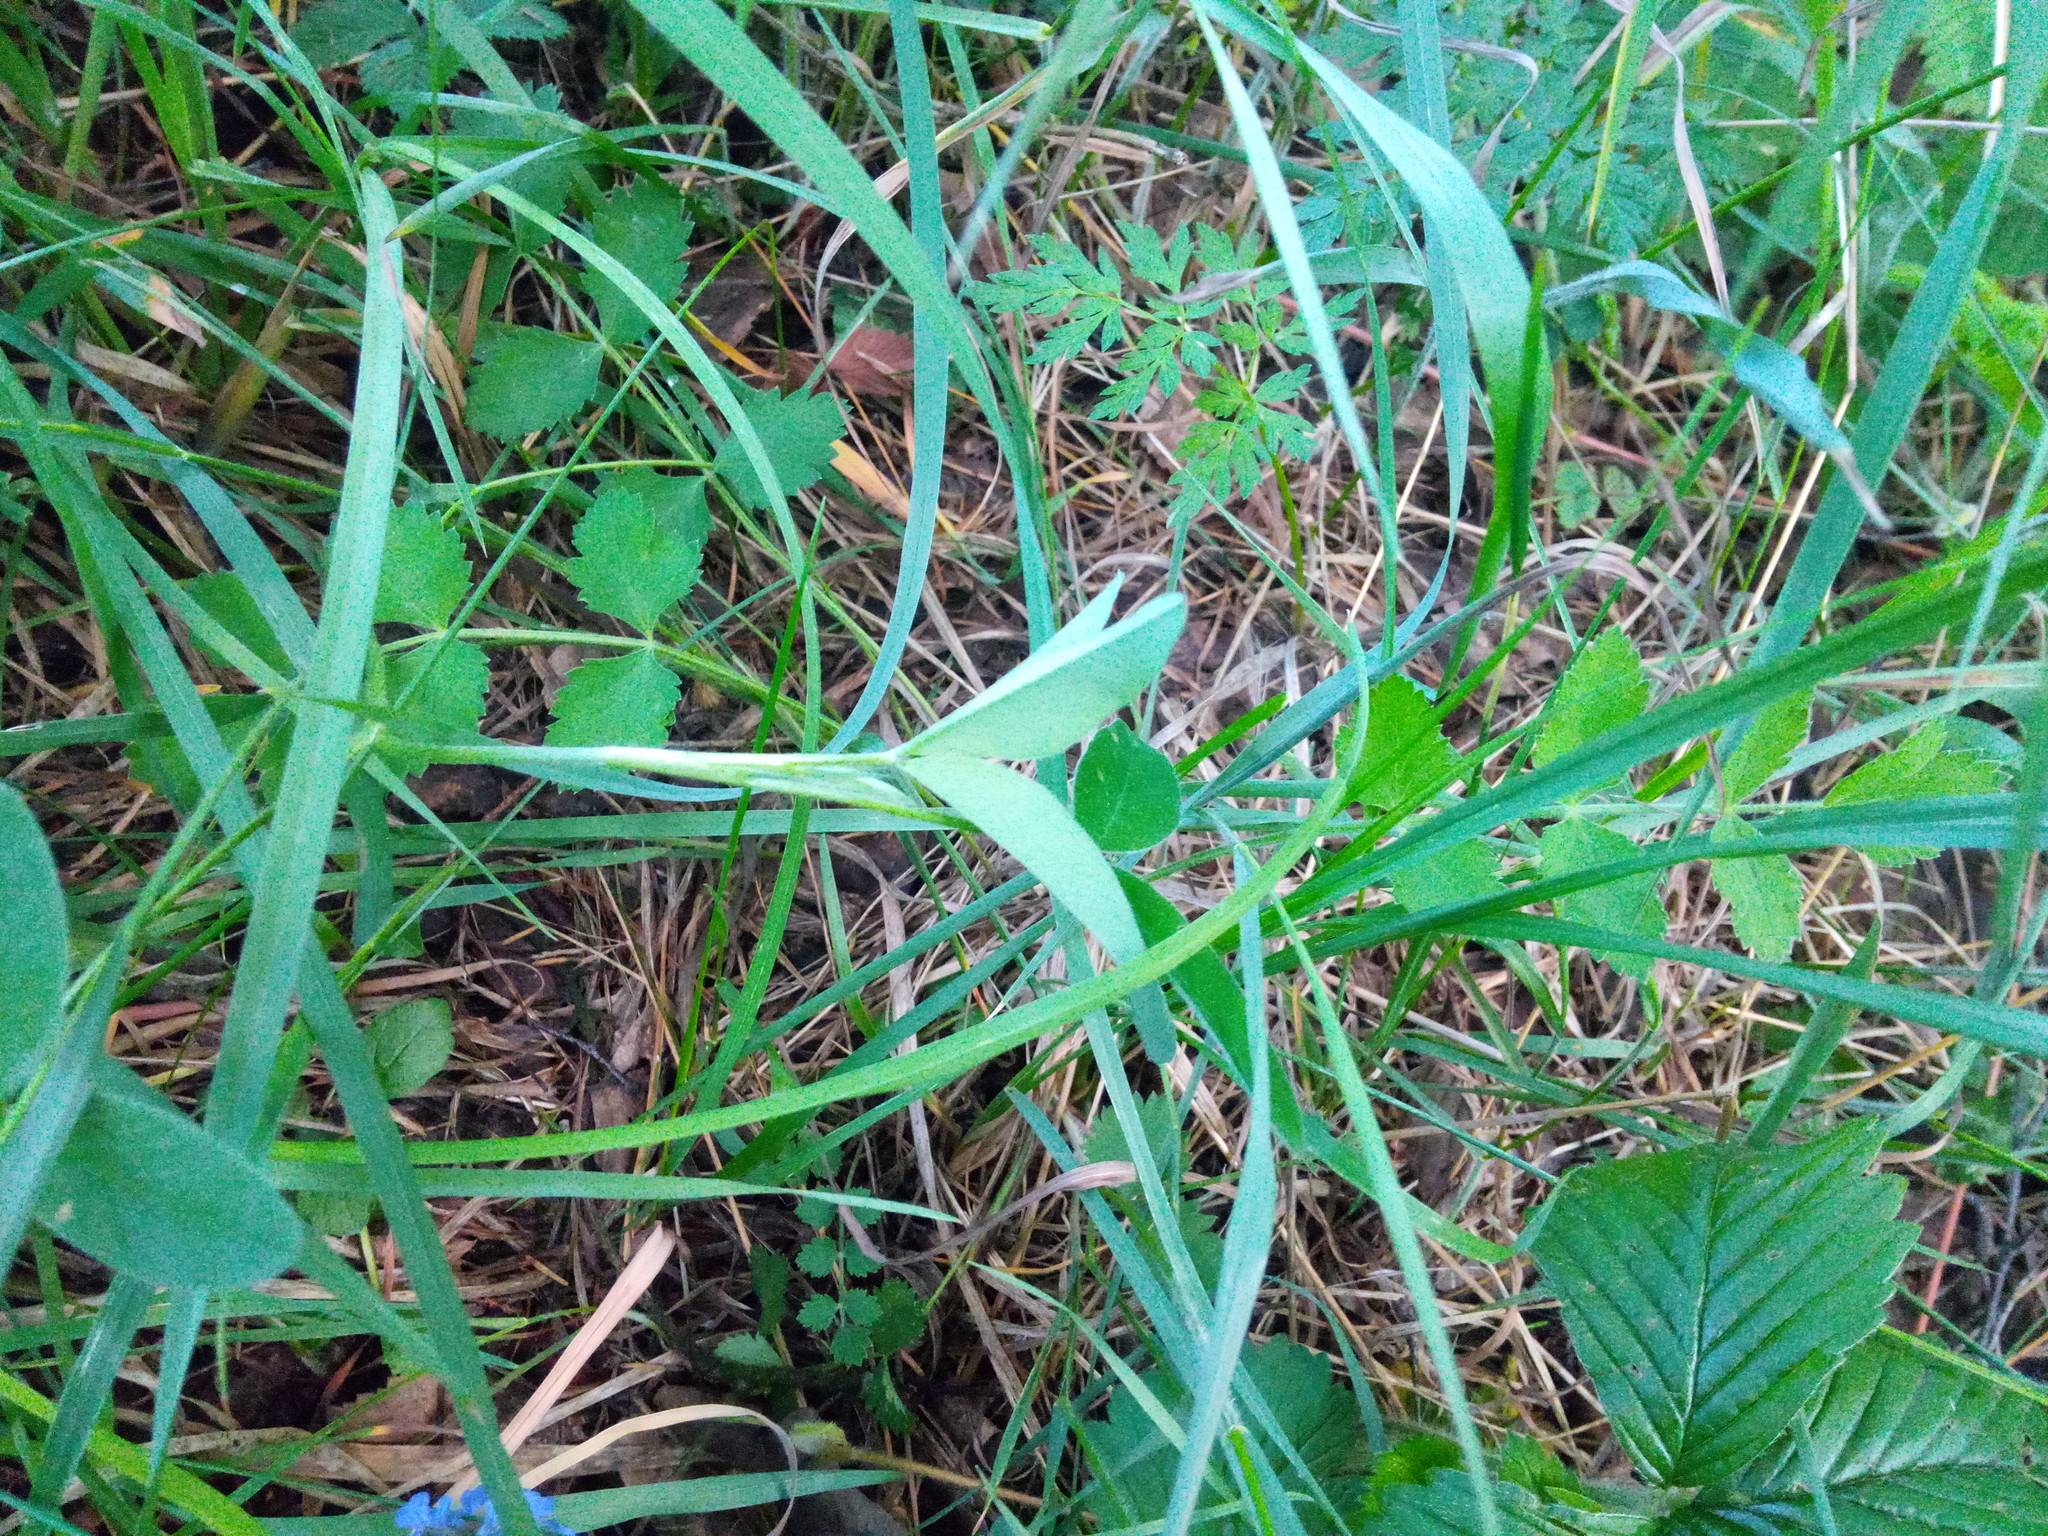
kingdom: Plantae
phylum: Tracheophyta
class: Magnoliopsida
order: Apiales
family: Apiaceae
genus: Pimpinella
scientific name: Pimpinella saxifraga
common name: Burnet-saxifrage
